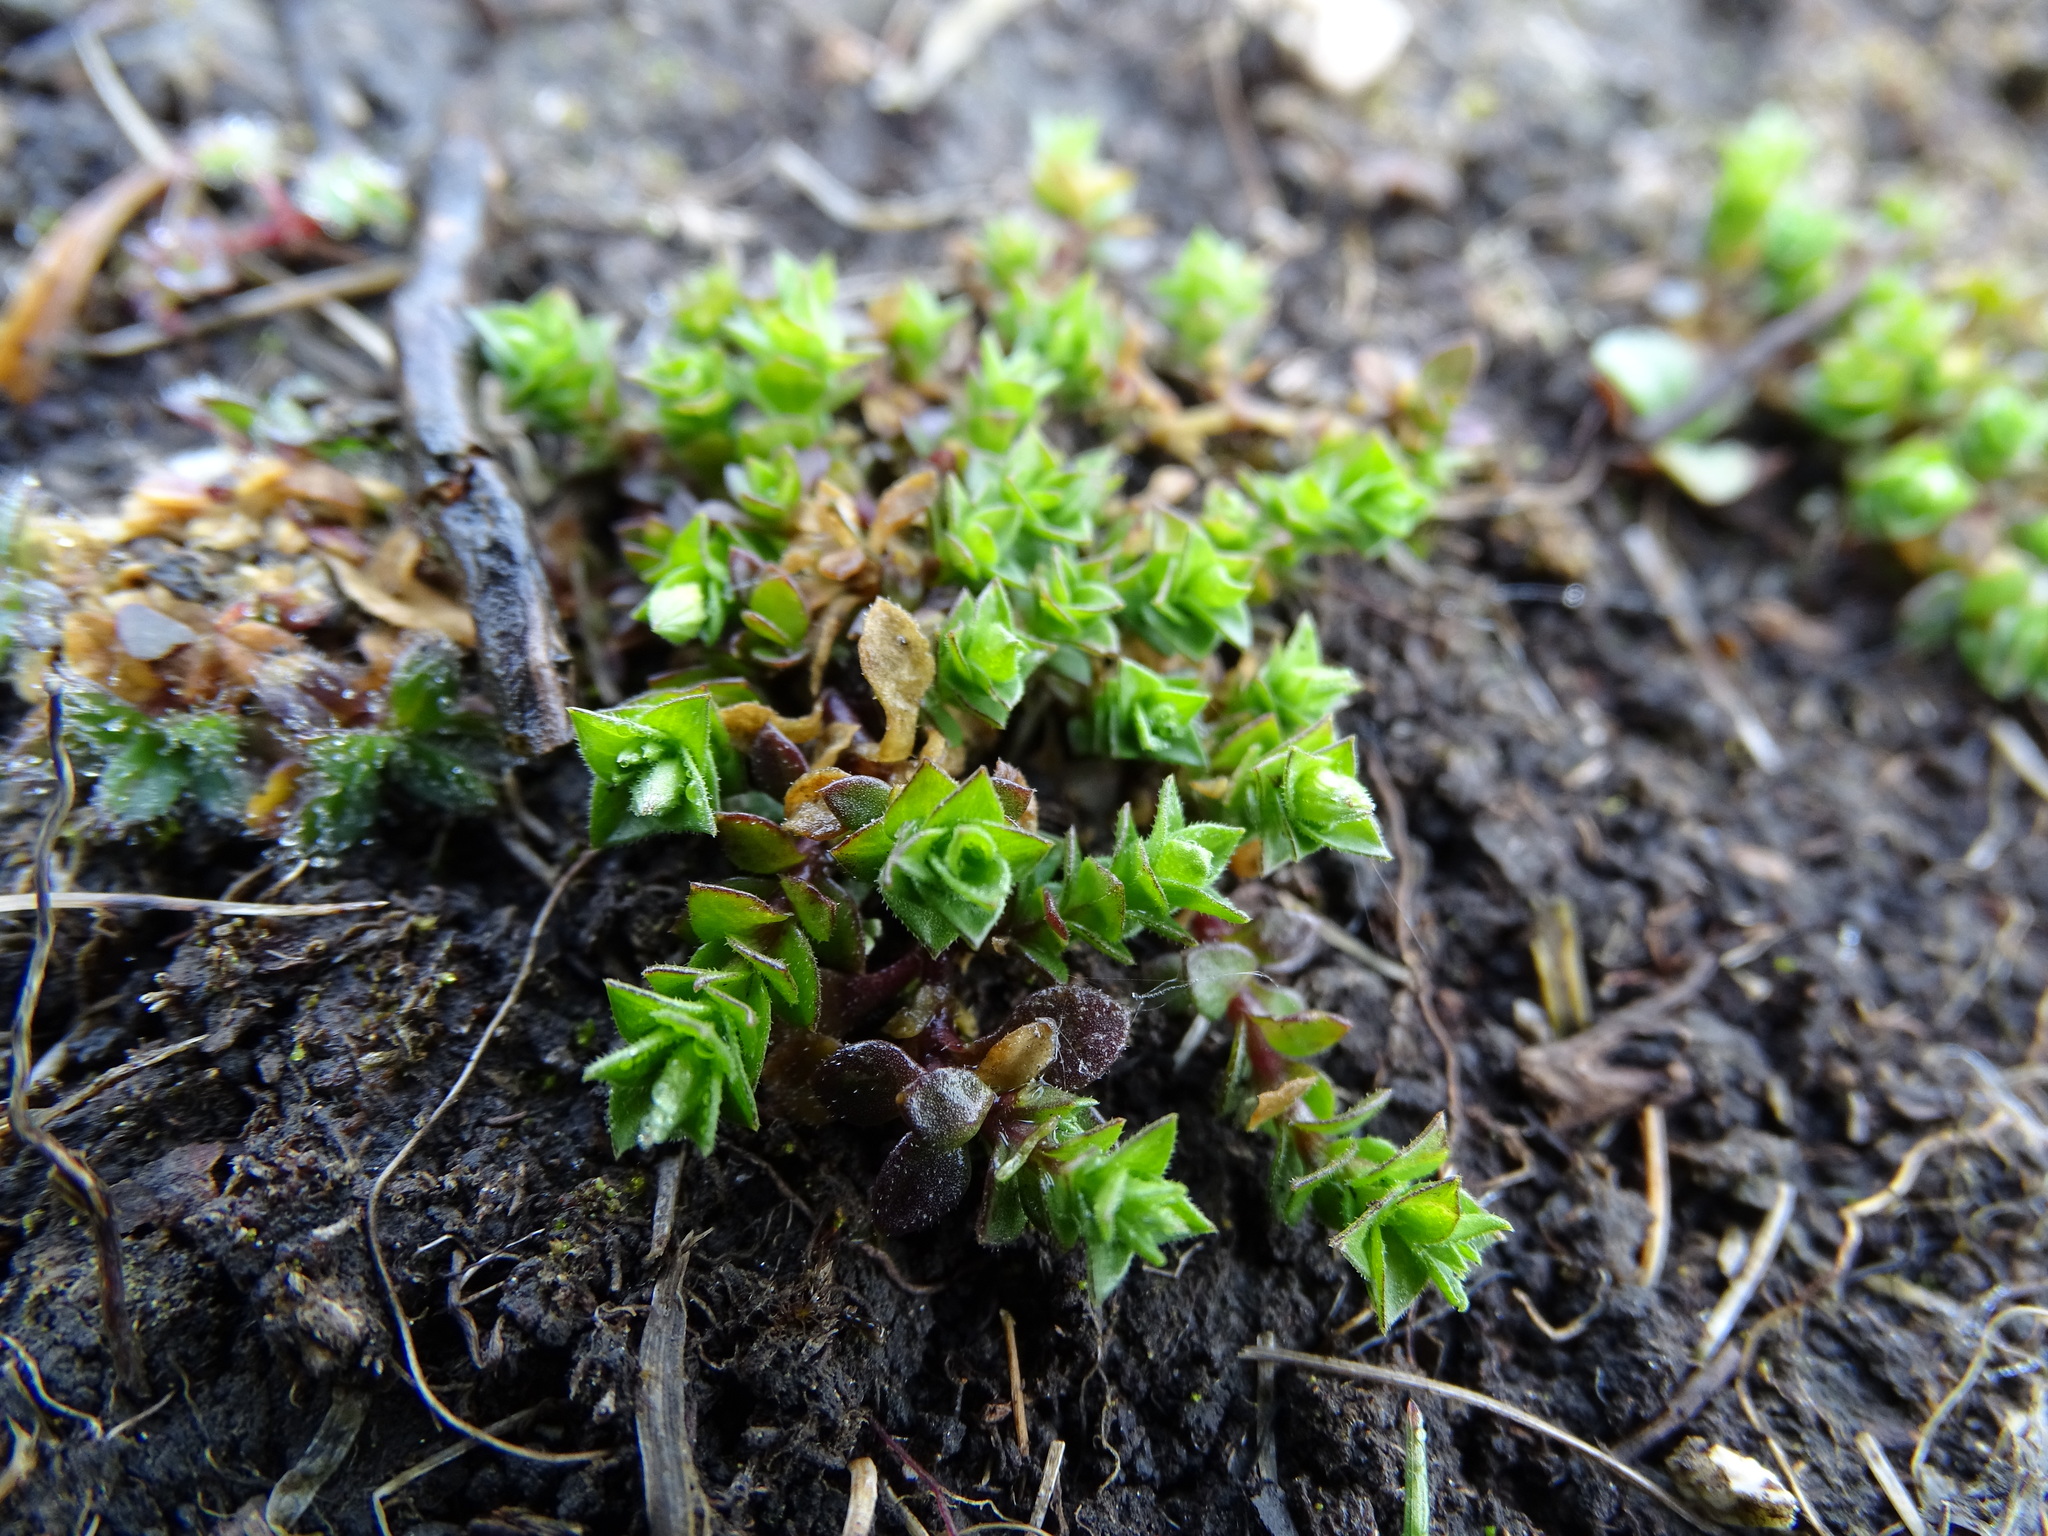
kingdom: Plantae
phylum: Tracheophyta
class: Magnoliopsida
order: Caryophyllales
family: Caryophyllaceae
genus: Arenaria
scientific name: Arenaria serpyllifolia
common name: Thyme-leaved sandwort
